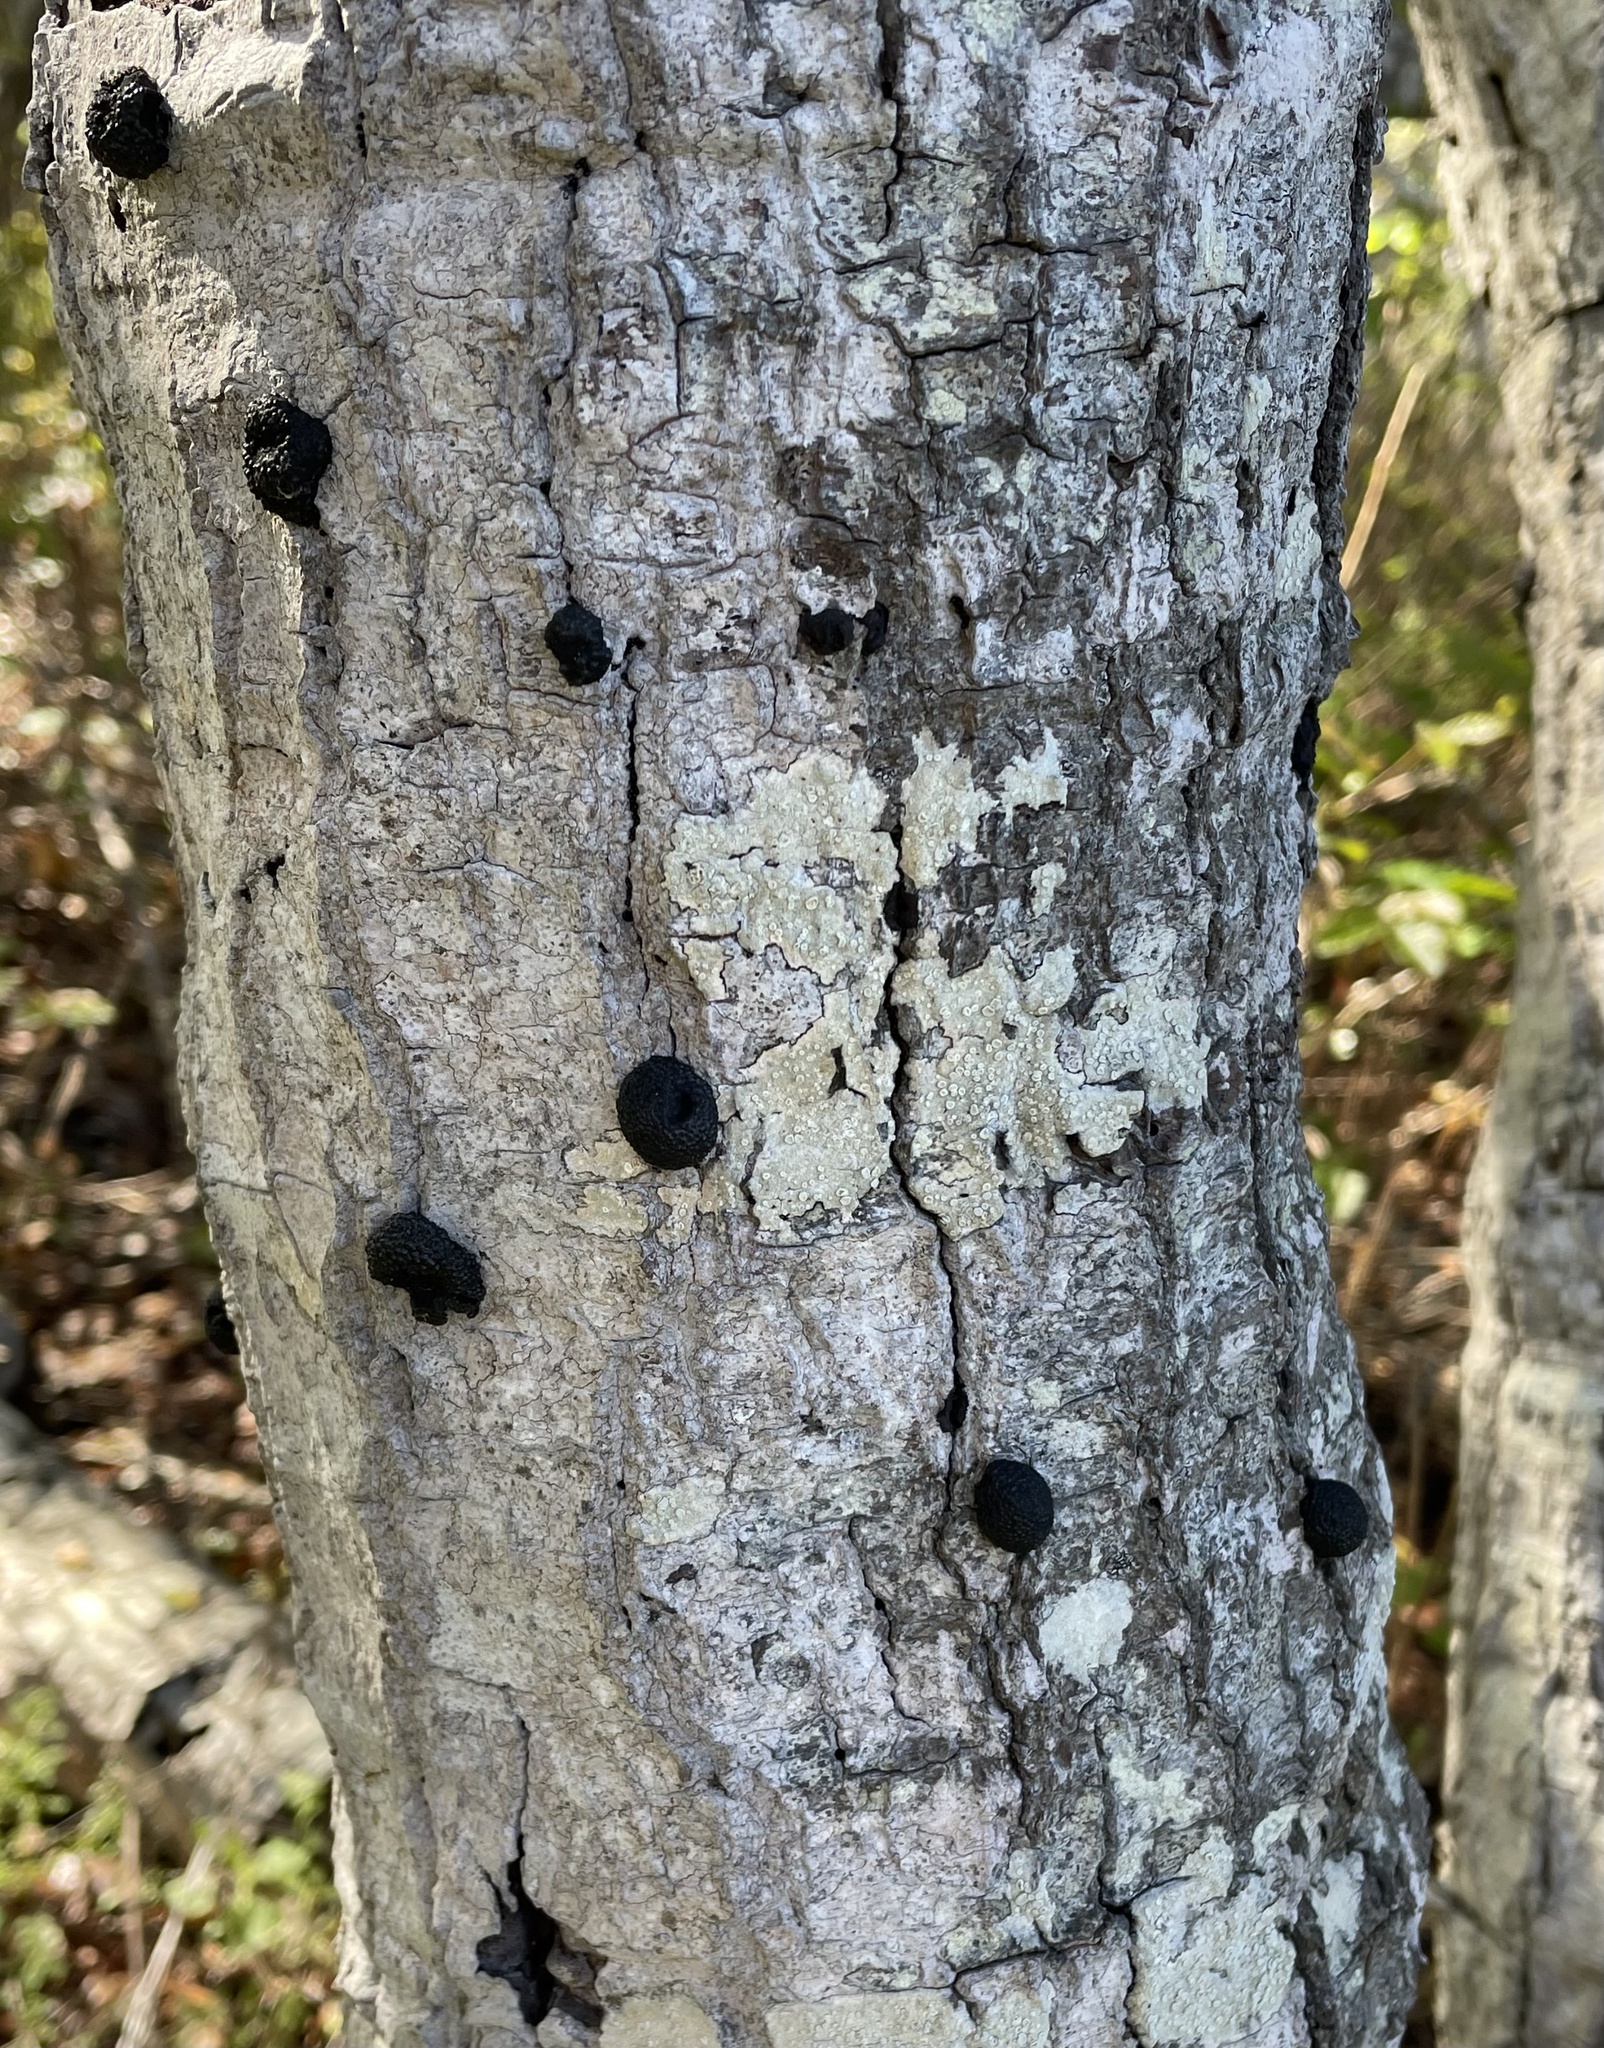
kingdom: Fungi
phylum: Ascomycota
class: Sordariomycetes
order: Xylariales
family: Hypoxylaceae
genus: Annulohypoxylon
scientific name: Annulohypoxylon thouarsianum
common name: Cramp balls
